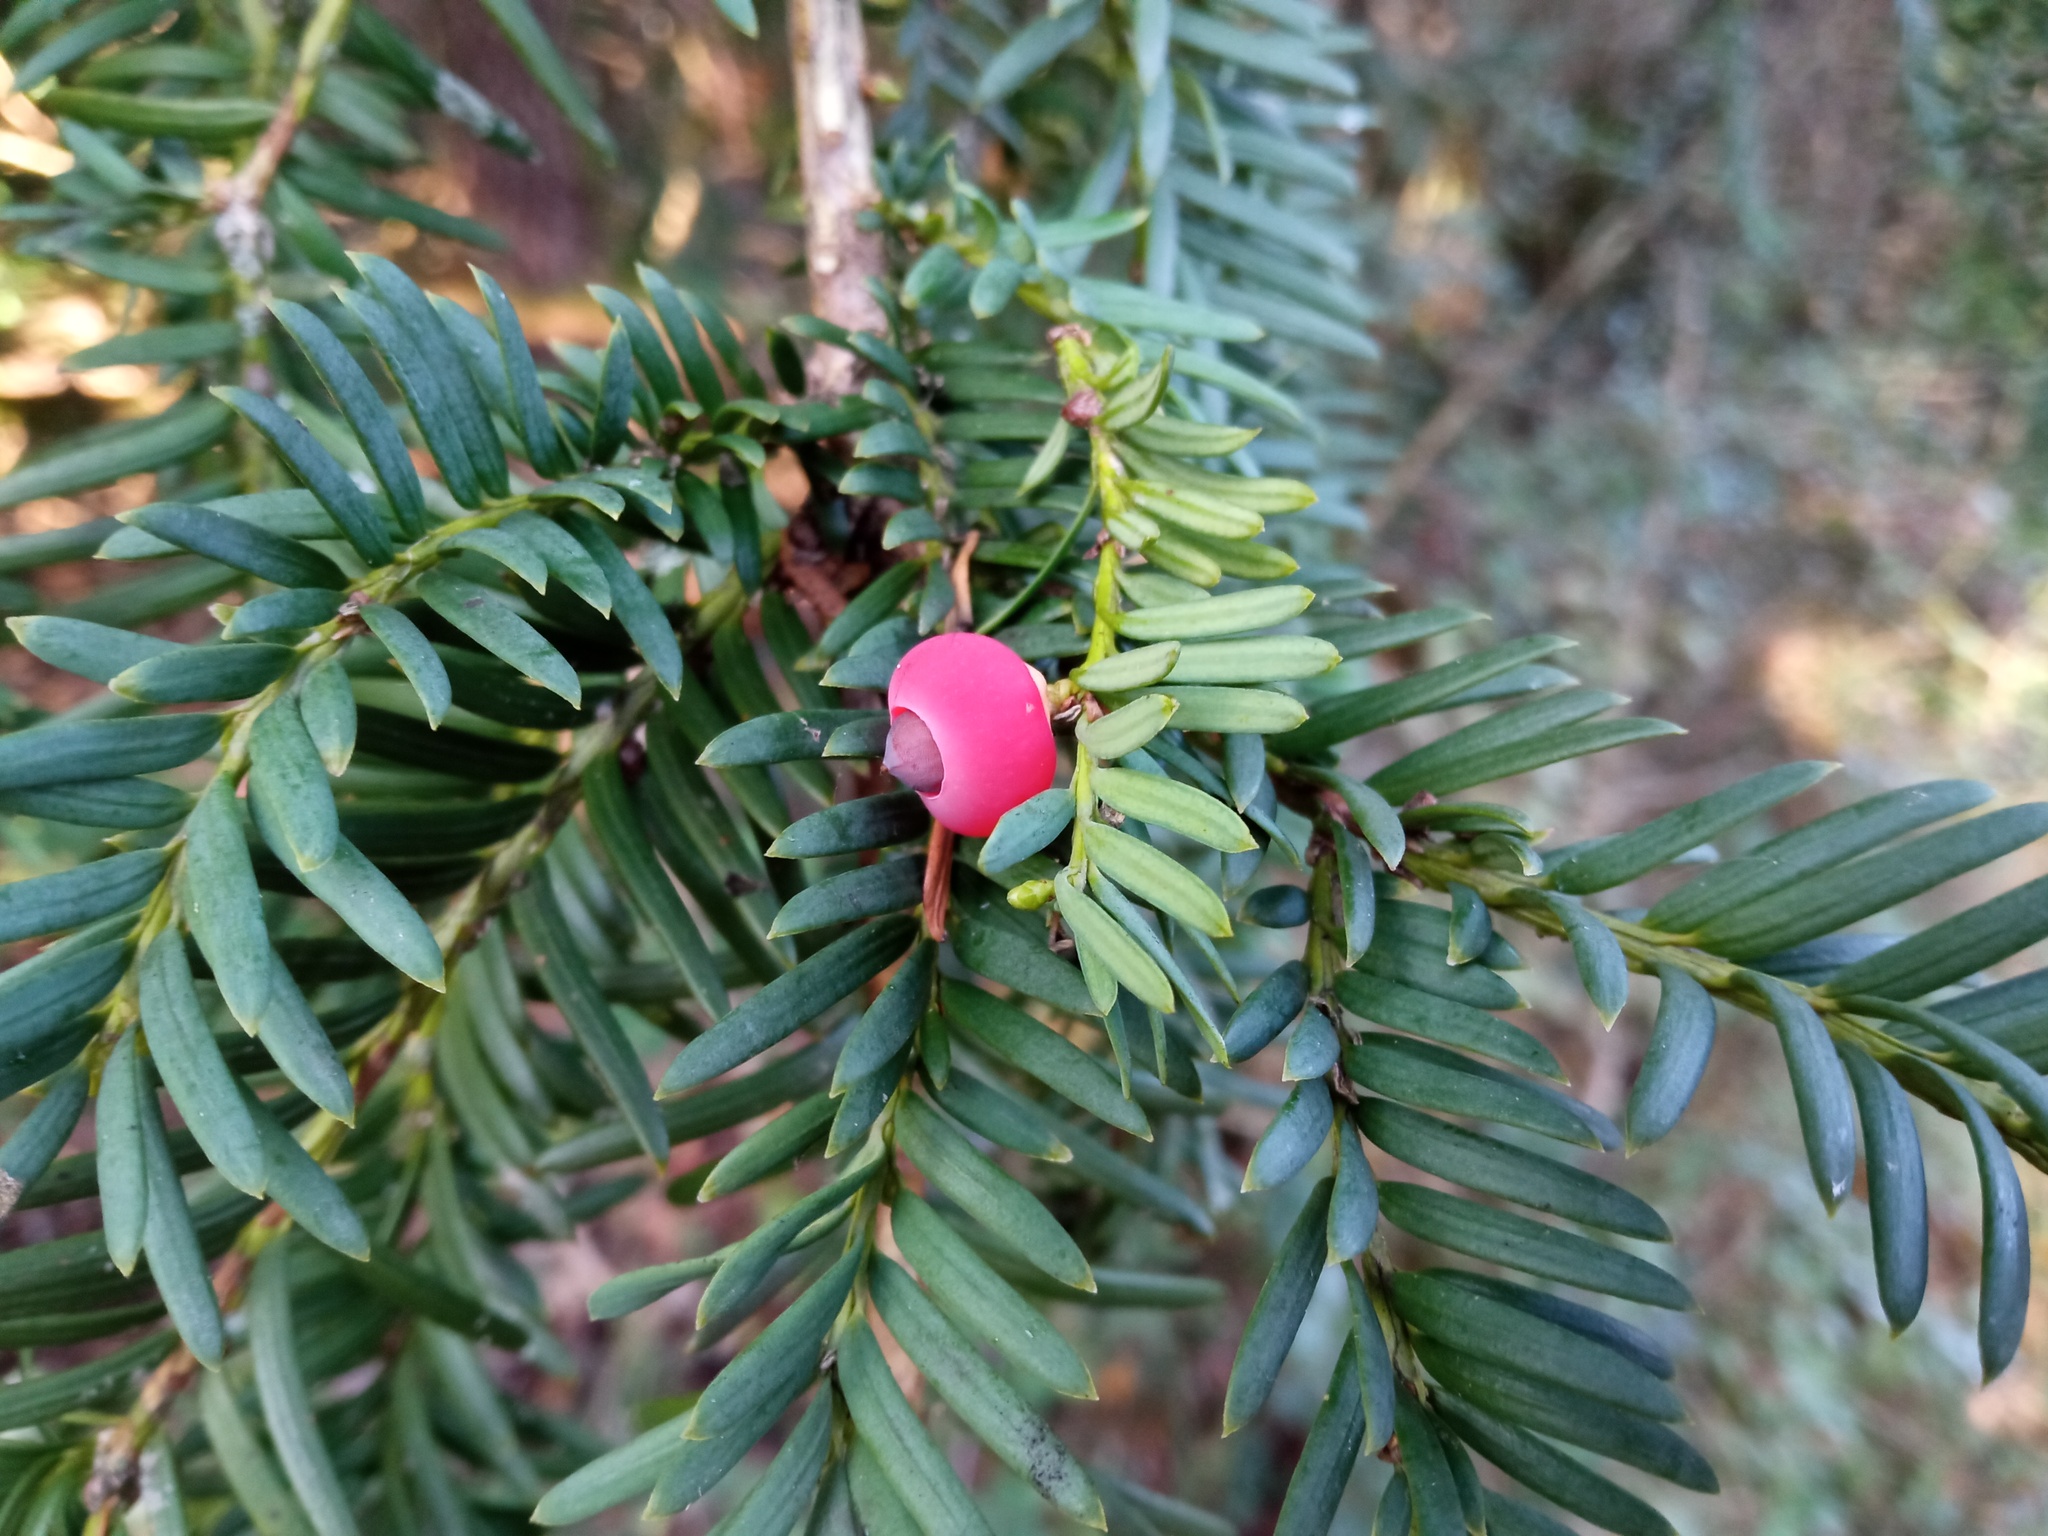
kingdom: Plantae
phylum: Tracheophyta
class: Pinopsida
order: Pinales
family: Taxaceae
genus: Taxus
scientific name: Taxus baccata
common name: Yew
